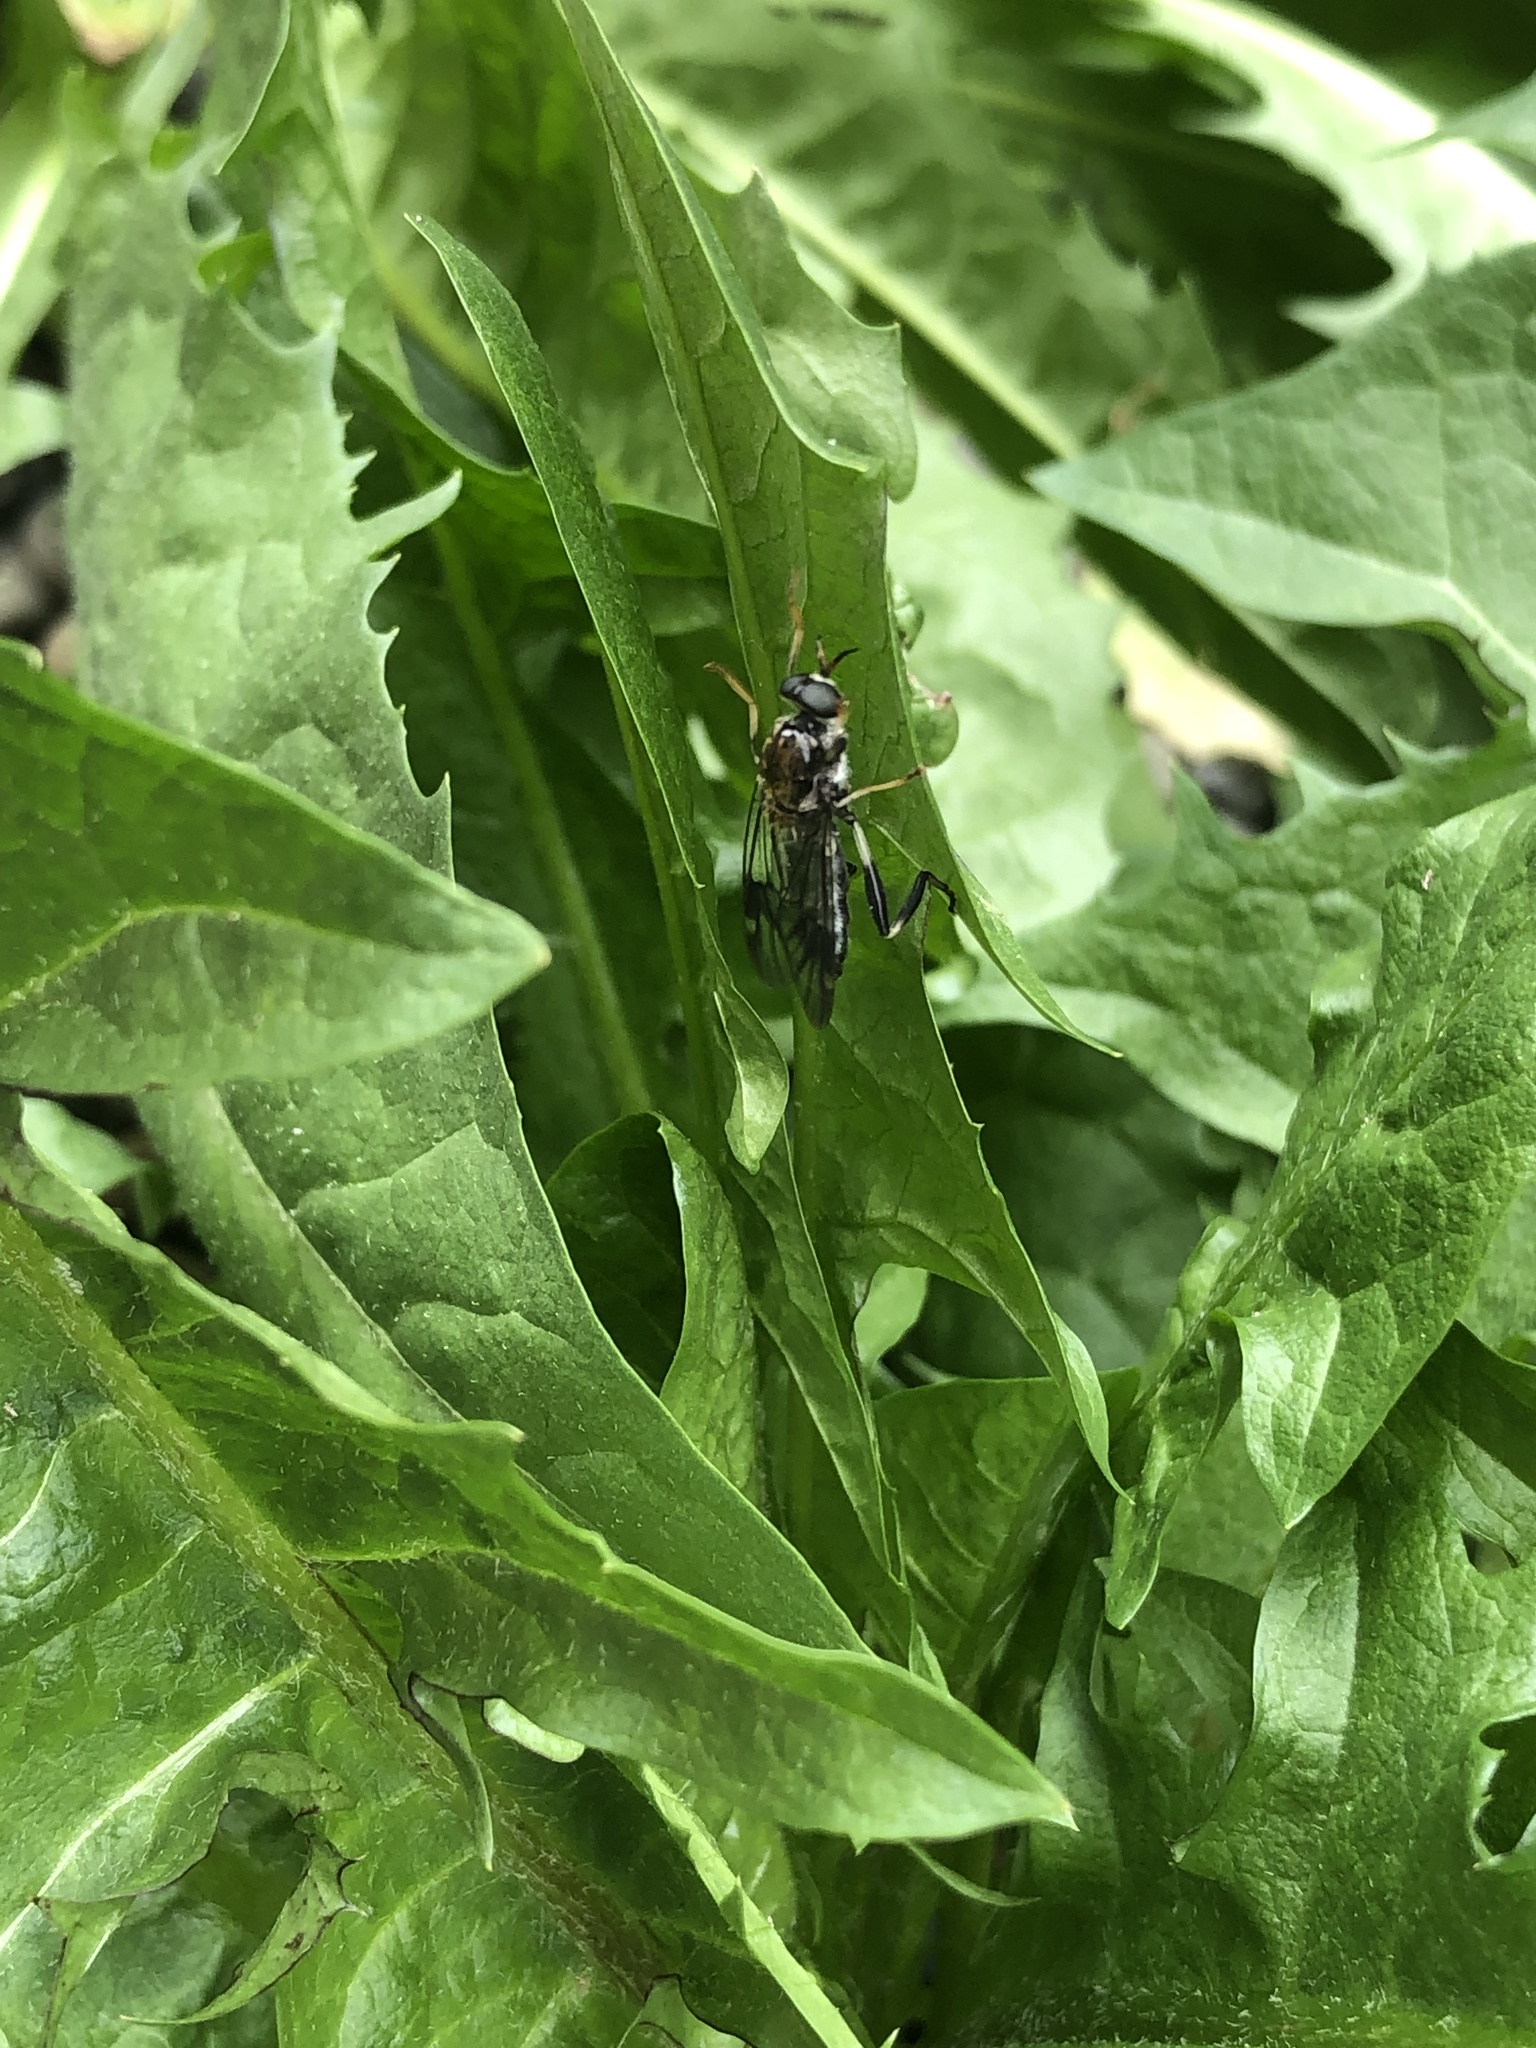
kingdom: Animalia
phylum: Arthropoda
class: Insecta
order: Diptera
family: Stratiomyidae
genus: Exaireta
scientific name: Exaireta spinigera
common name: Blue soldier fly
